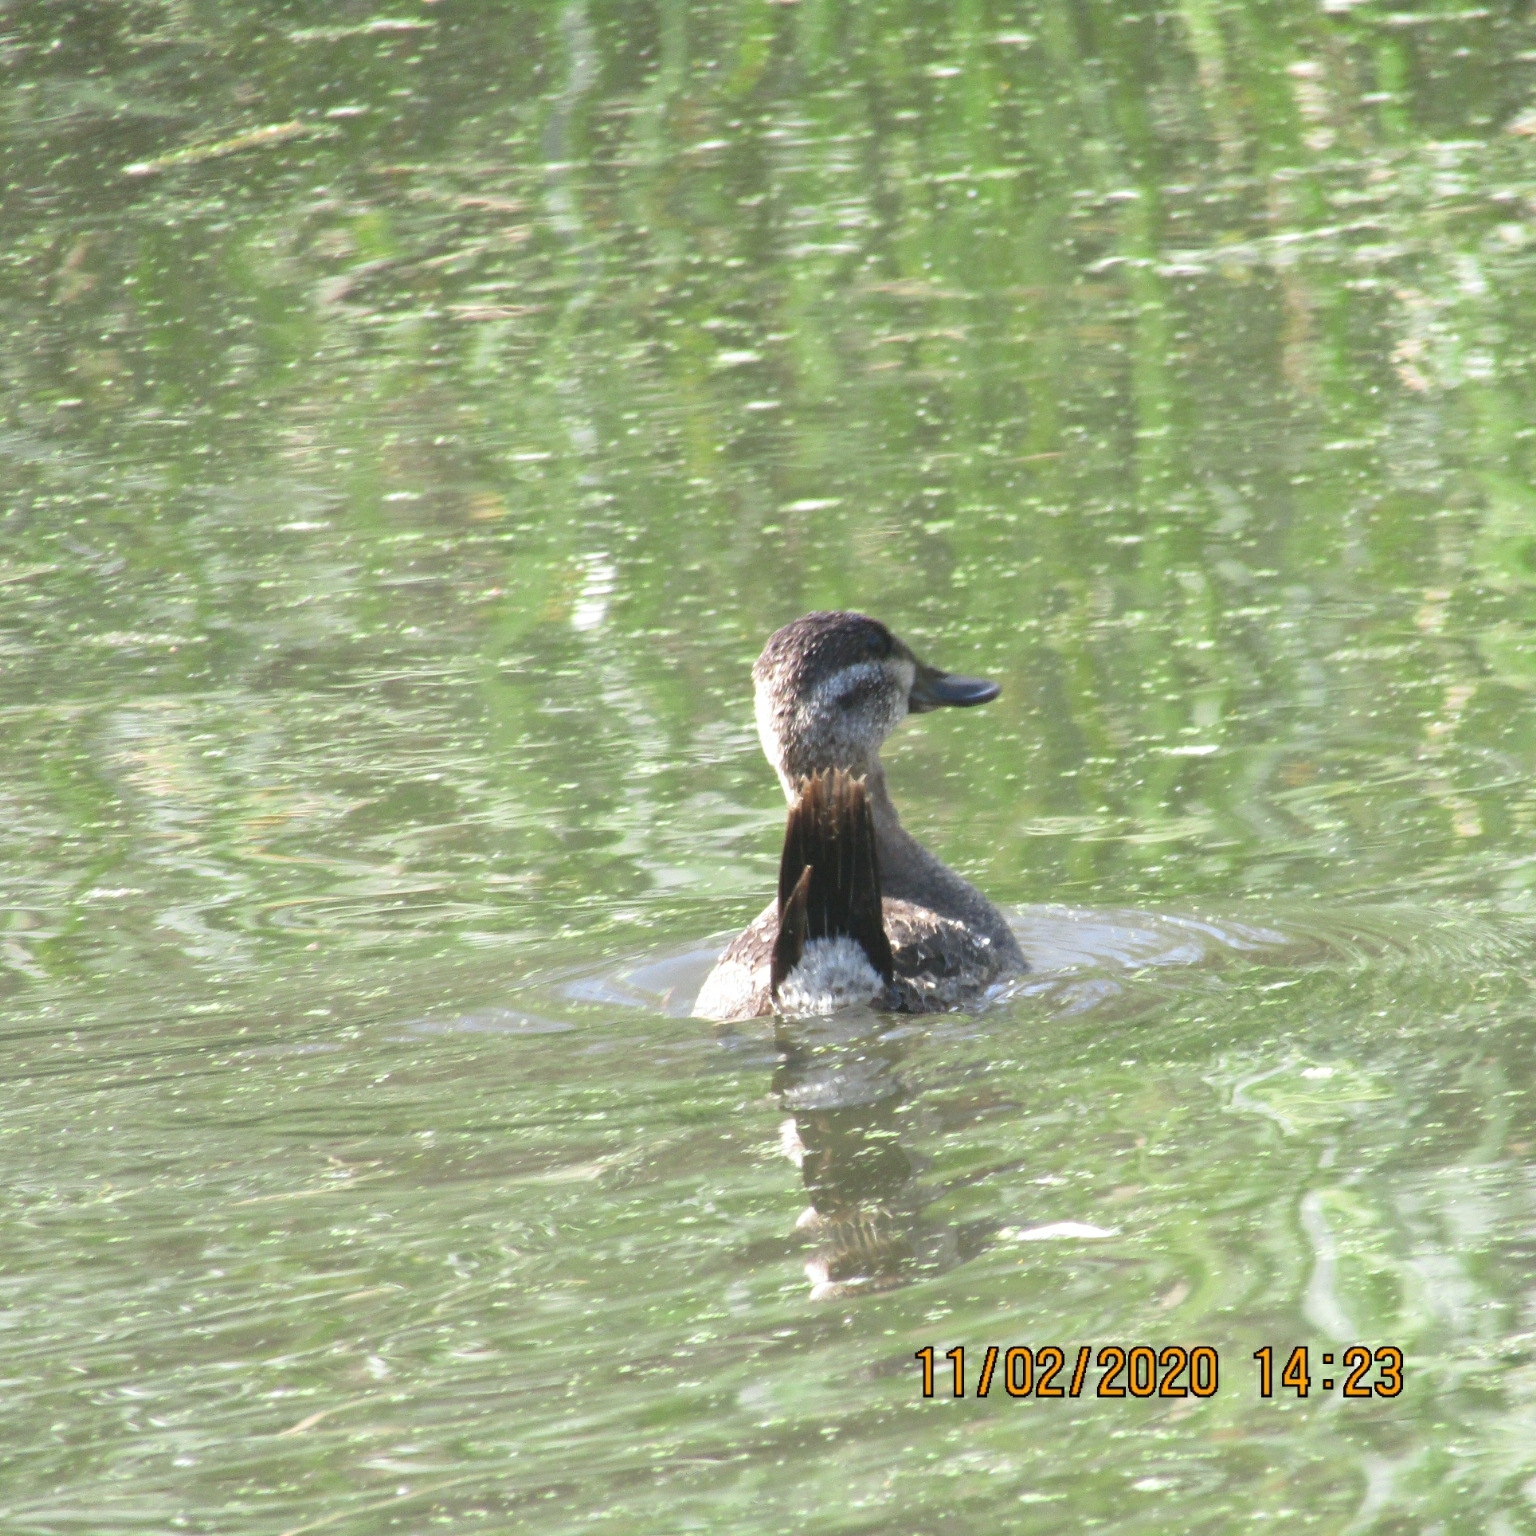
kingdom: Animalia
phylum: Chordata
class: Aves
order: Anseriformes
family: Anatidae
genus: Oxyura
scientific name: Oxyura jamaicensis
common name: Ruddy duck
